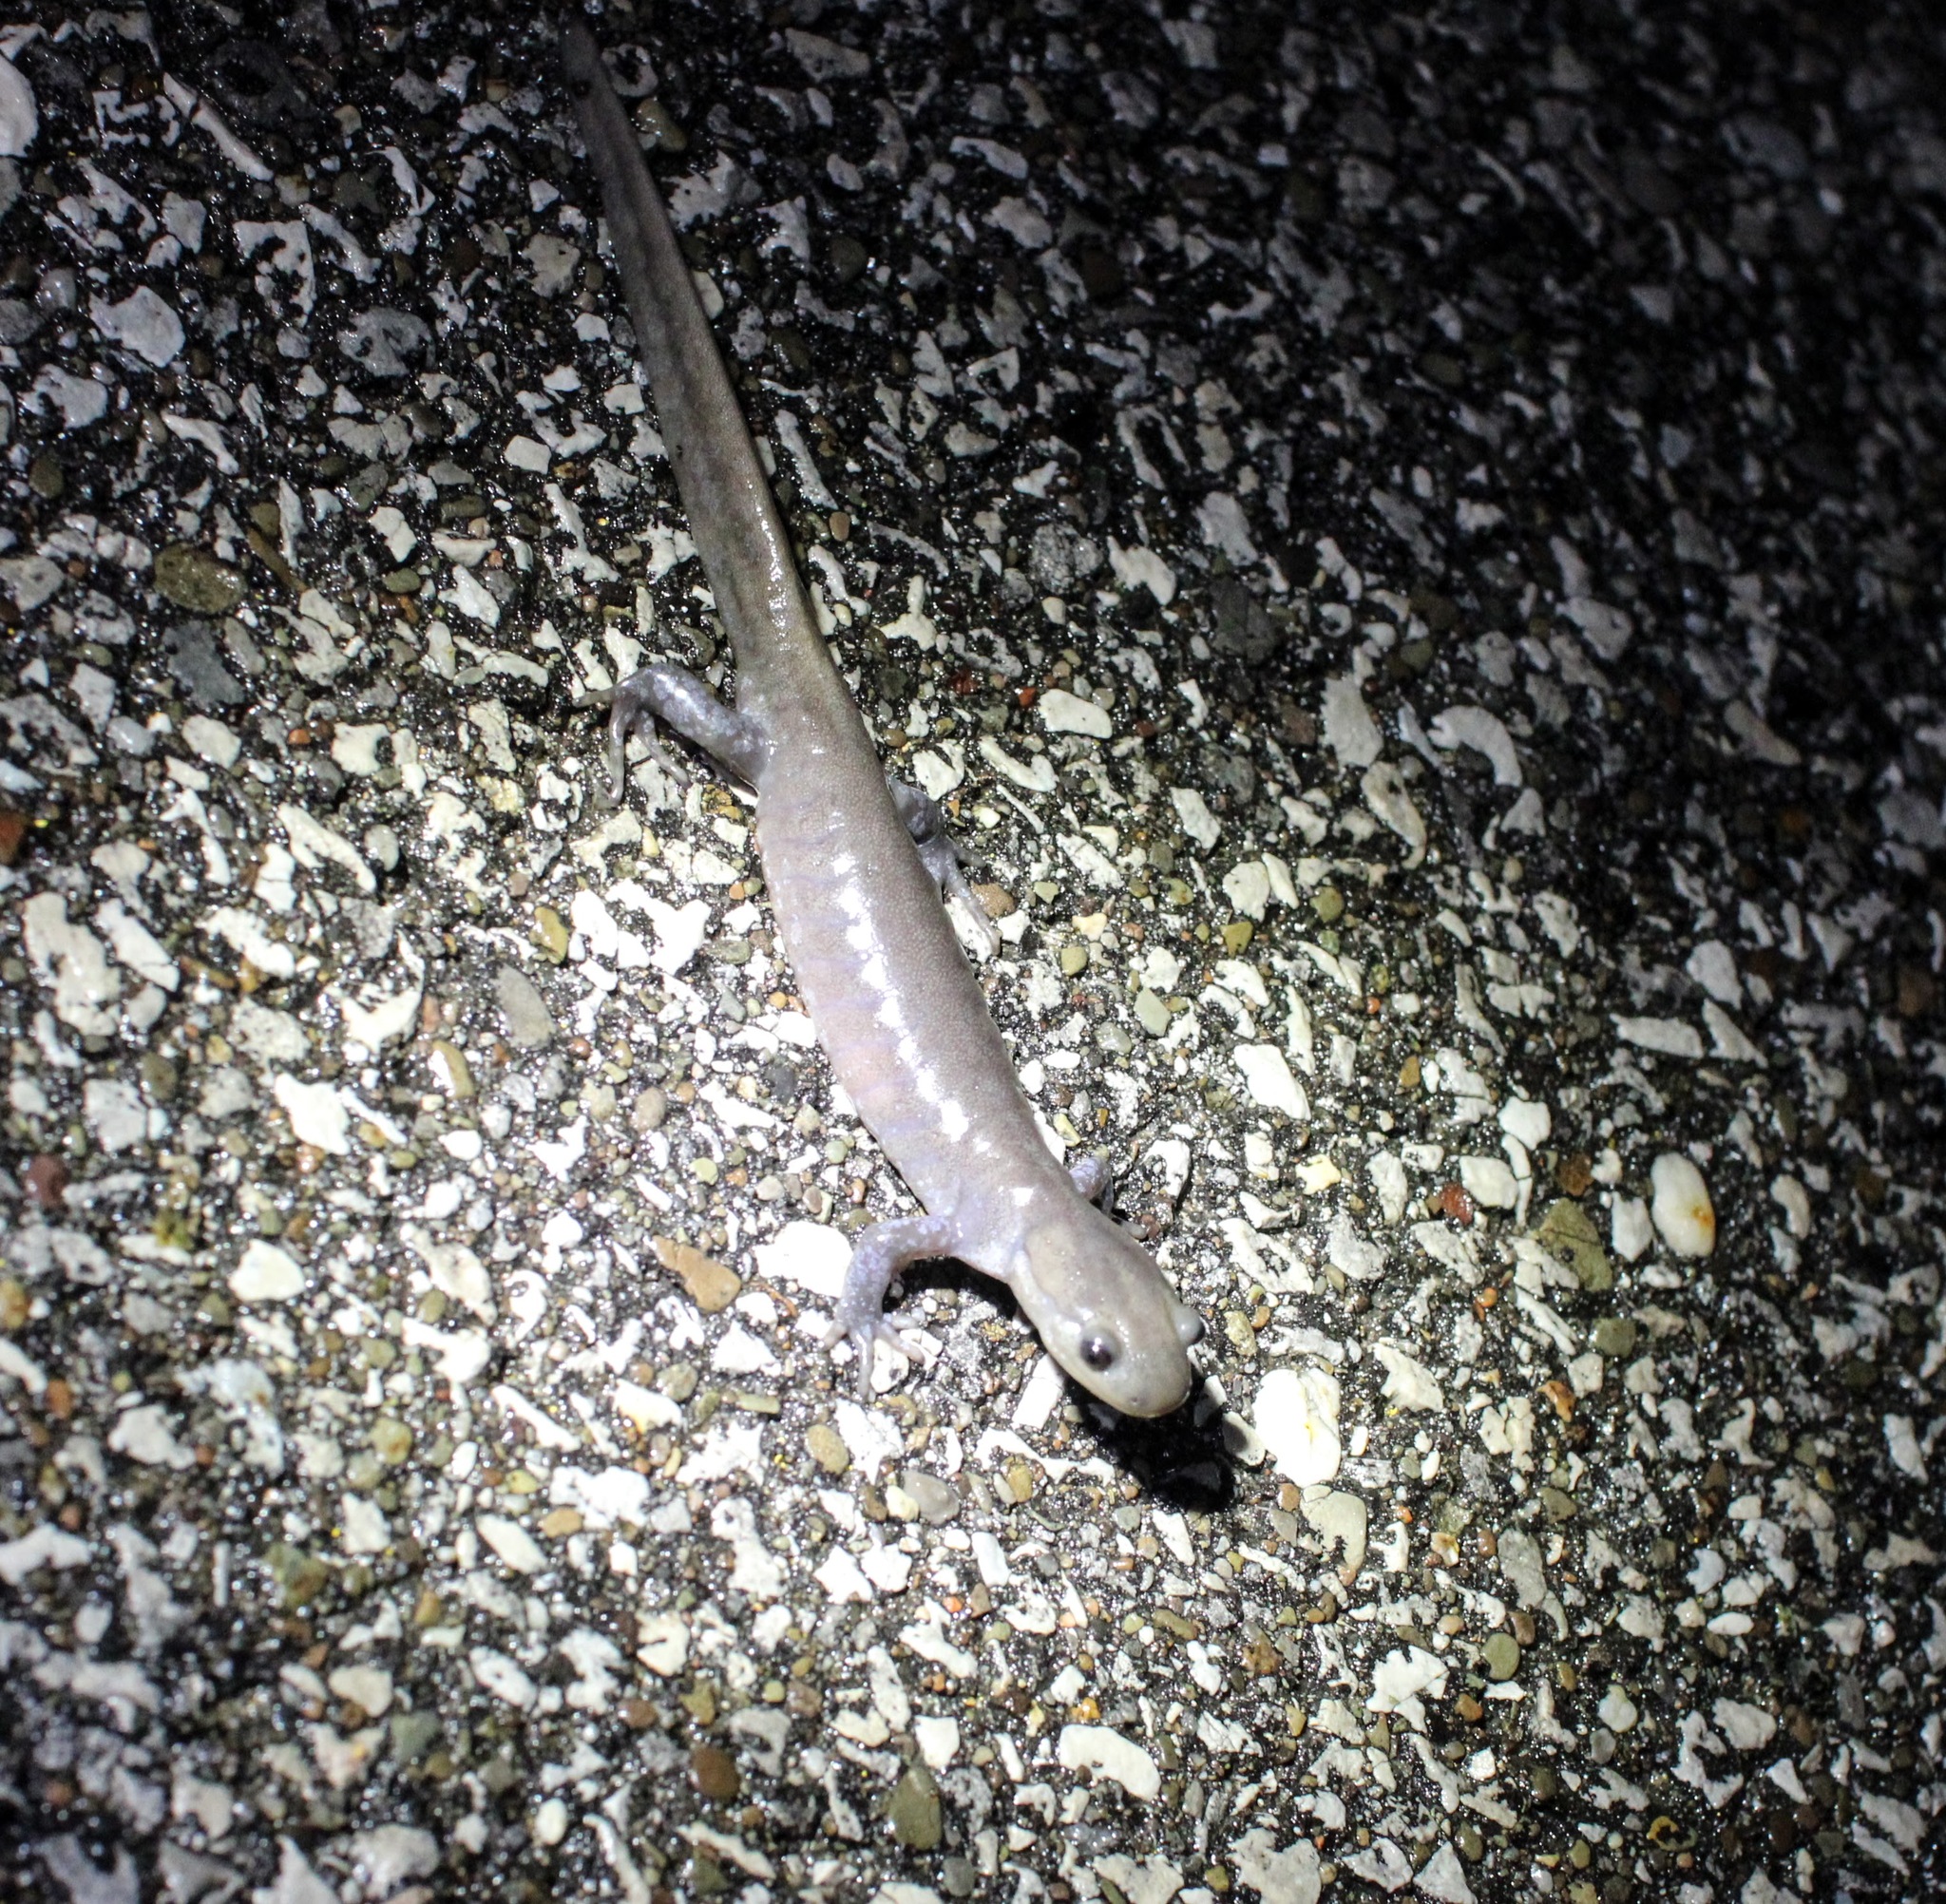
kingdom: Animalia
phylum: Chordata
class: Amphibia
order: Caudata
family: Ambystomatidae
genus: Ambystoma
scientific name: Ambystoma jeffersonianum
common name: Jefferson salamander
